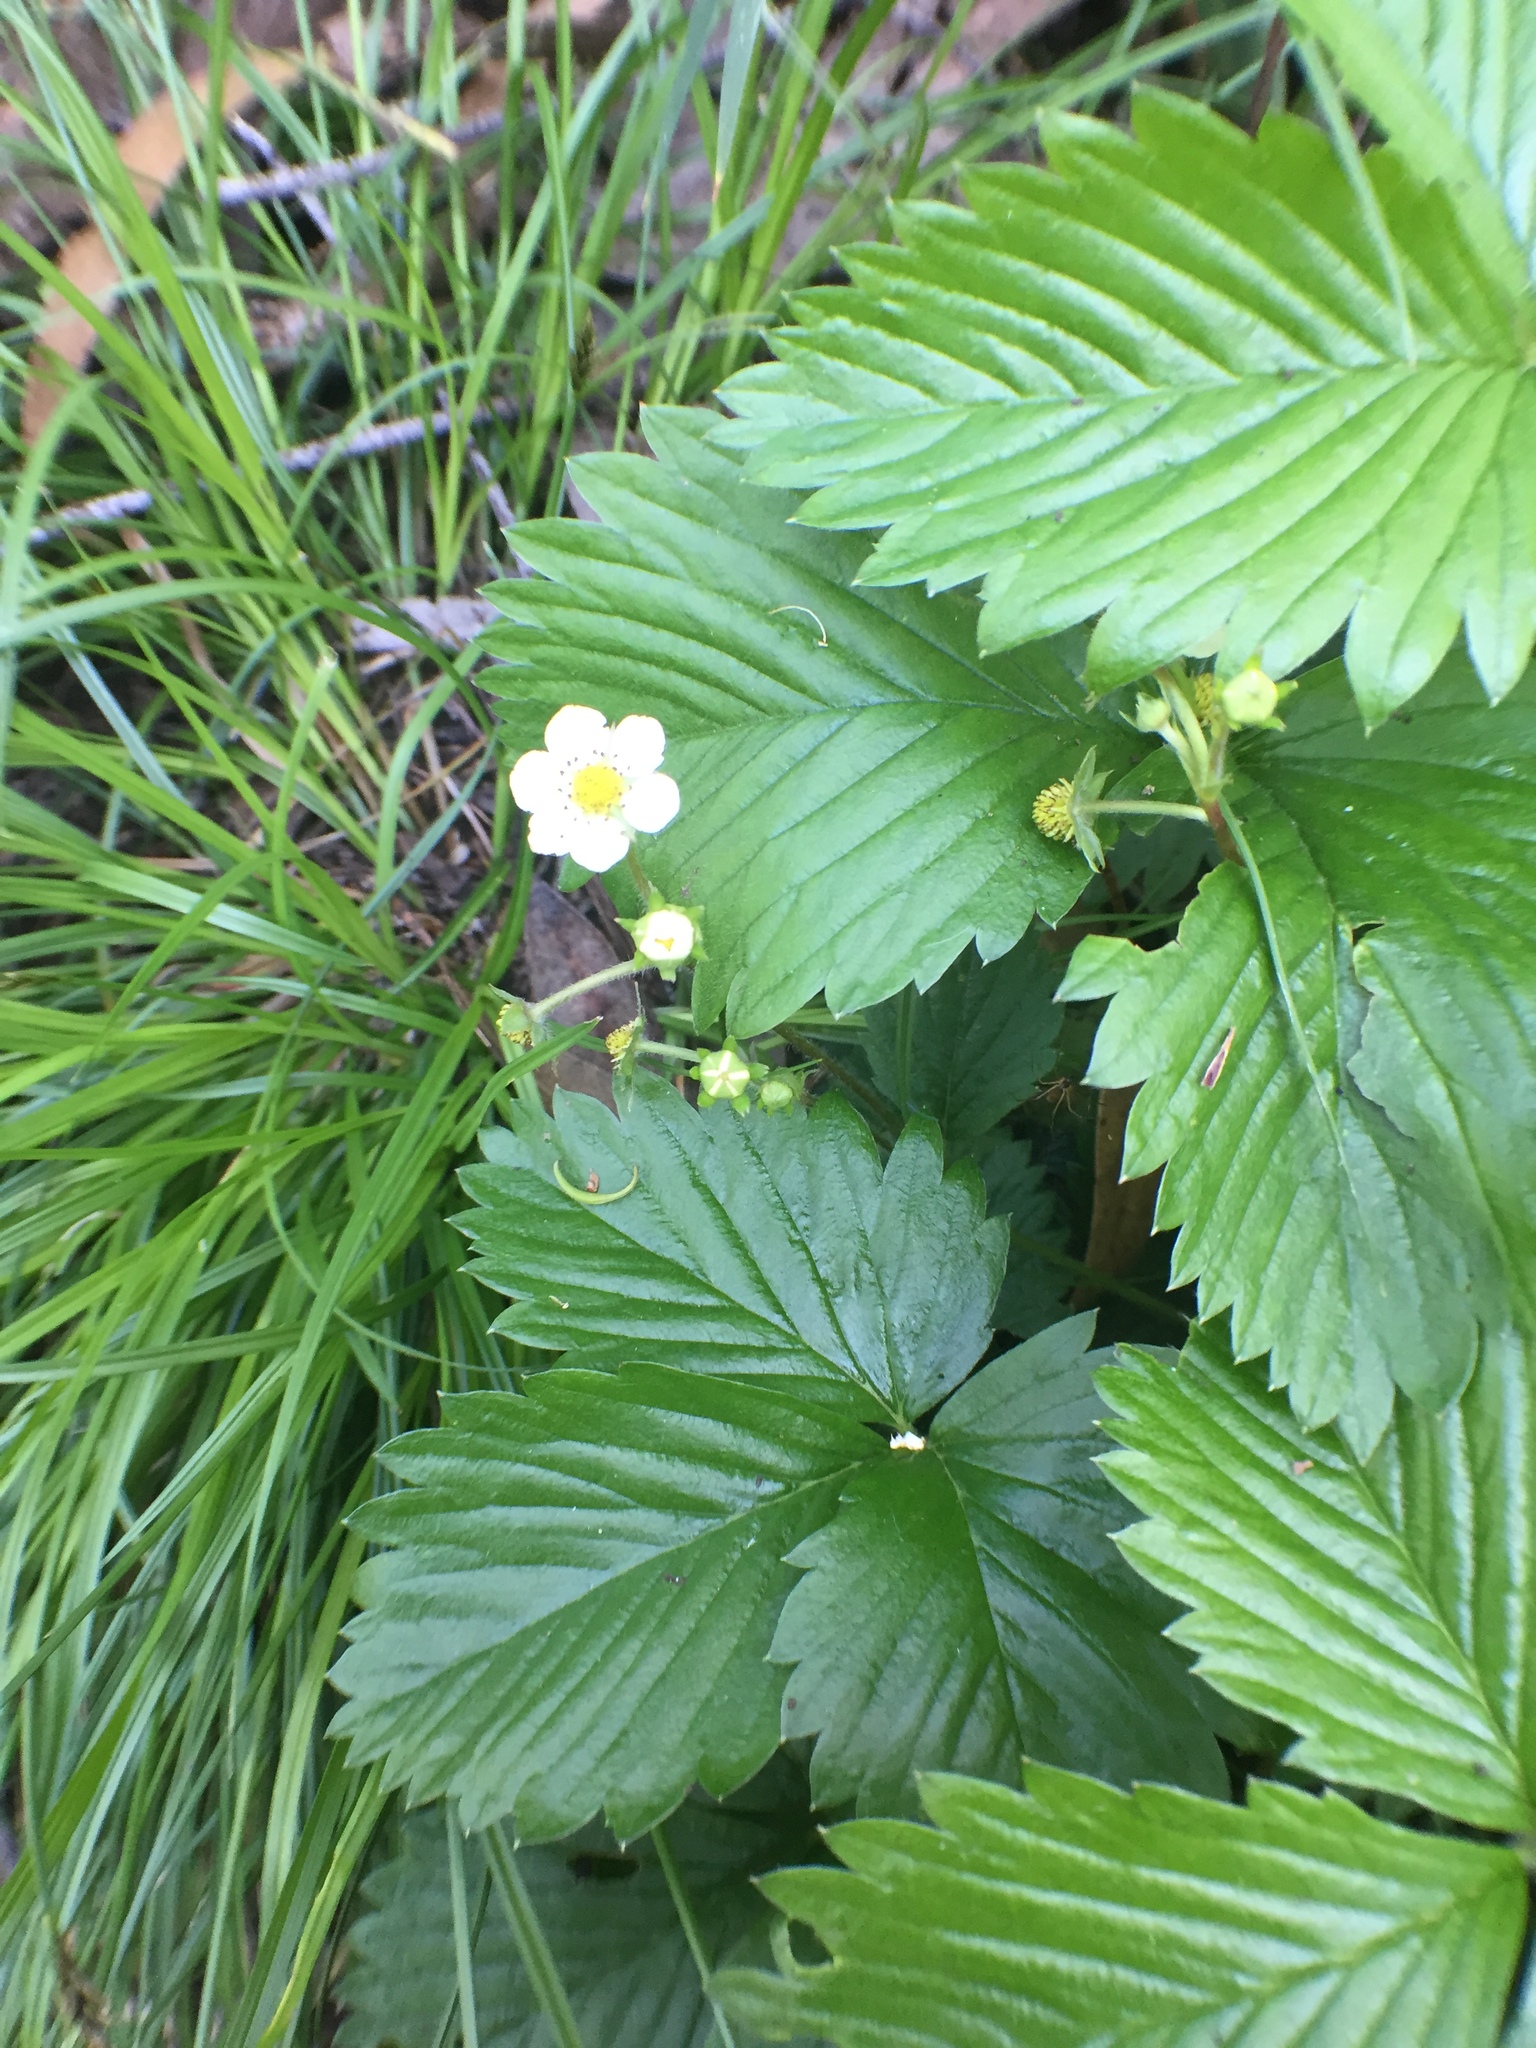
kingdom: Plantae
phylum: Tracheophyta
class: Magnoliopsida
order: Rosales
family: Rosaceae
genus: Fragaria
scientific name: Fragaria vesca
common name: Wild strawberry
